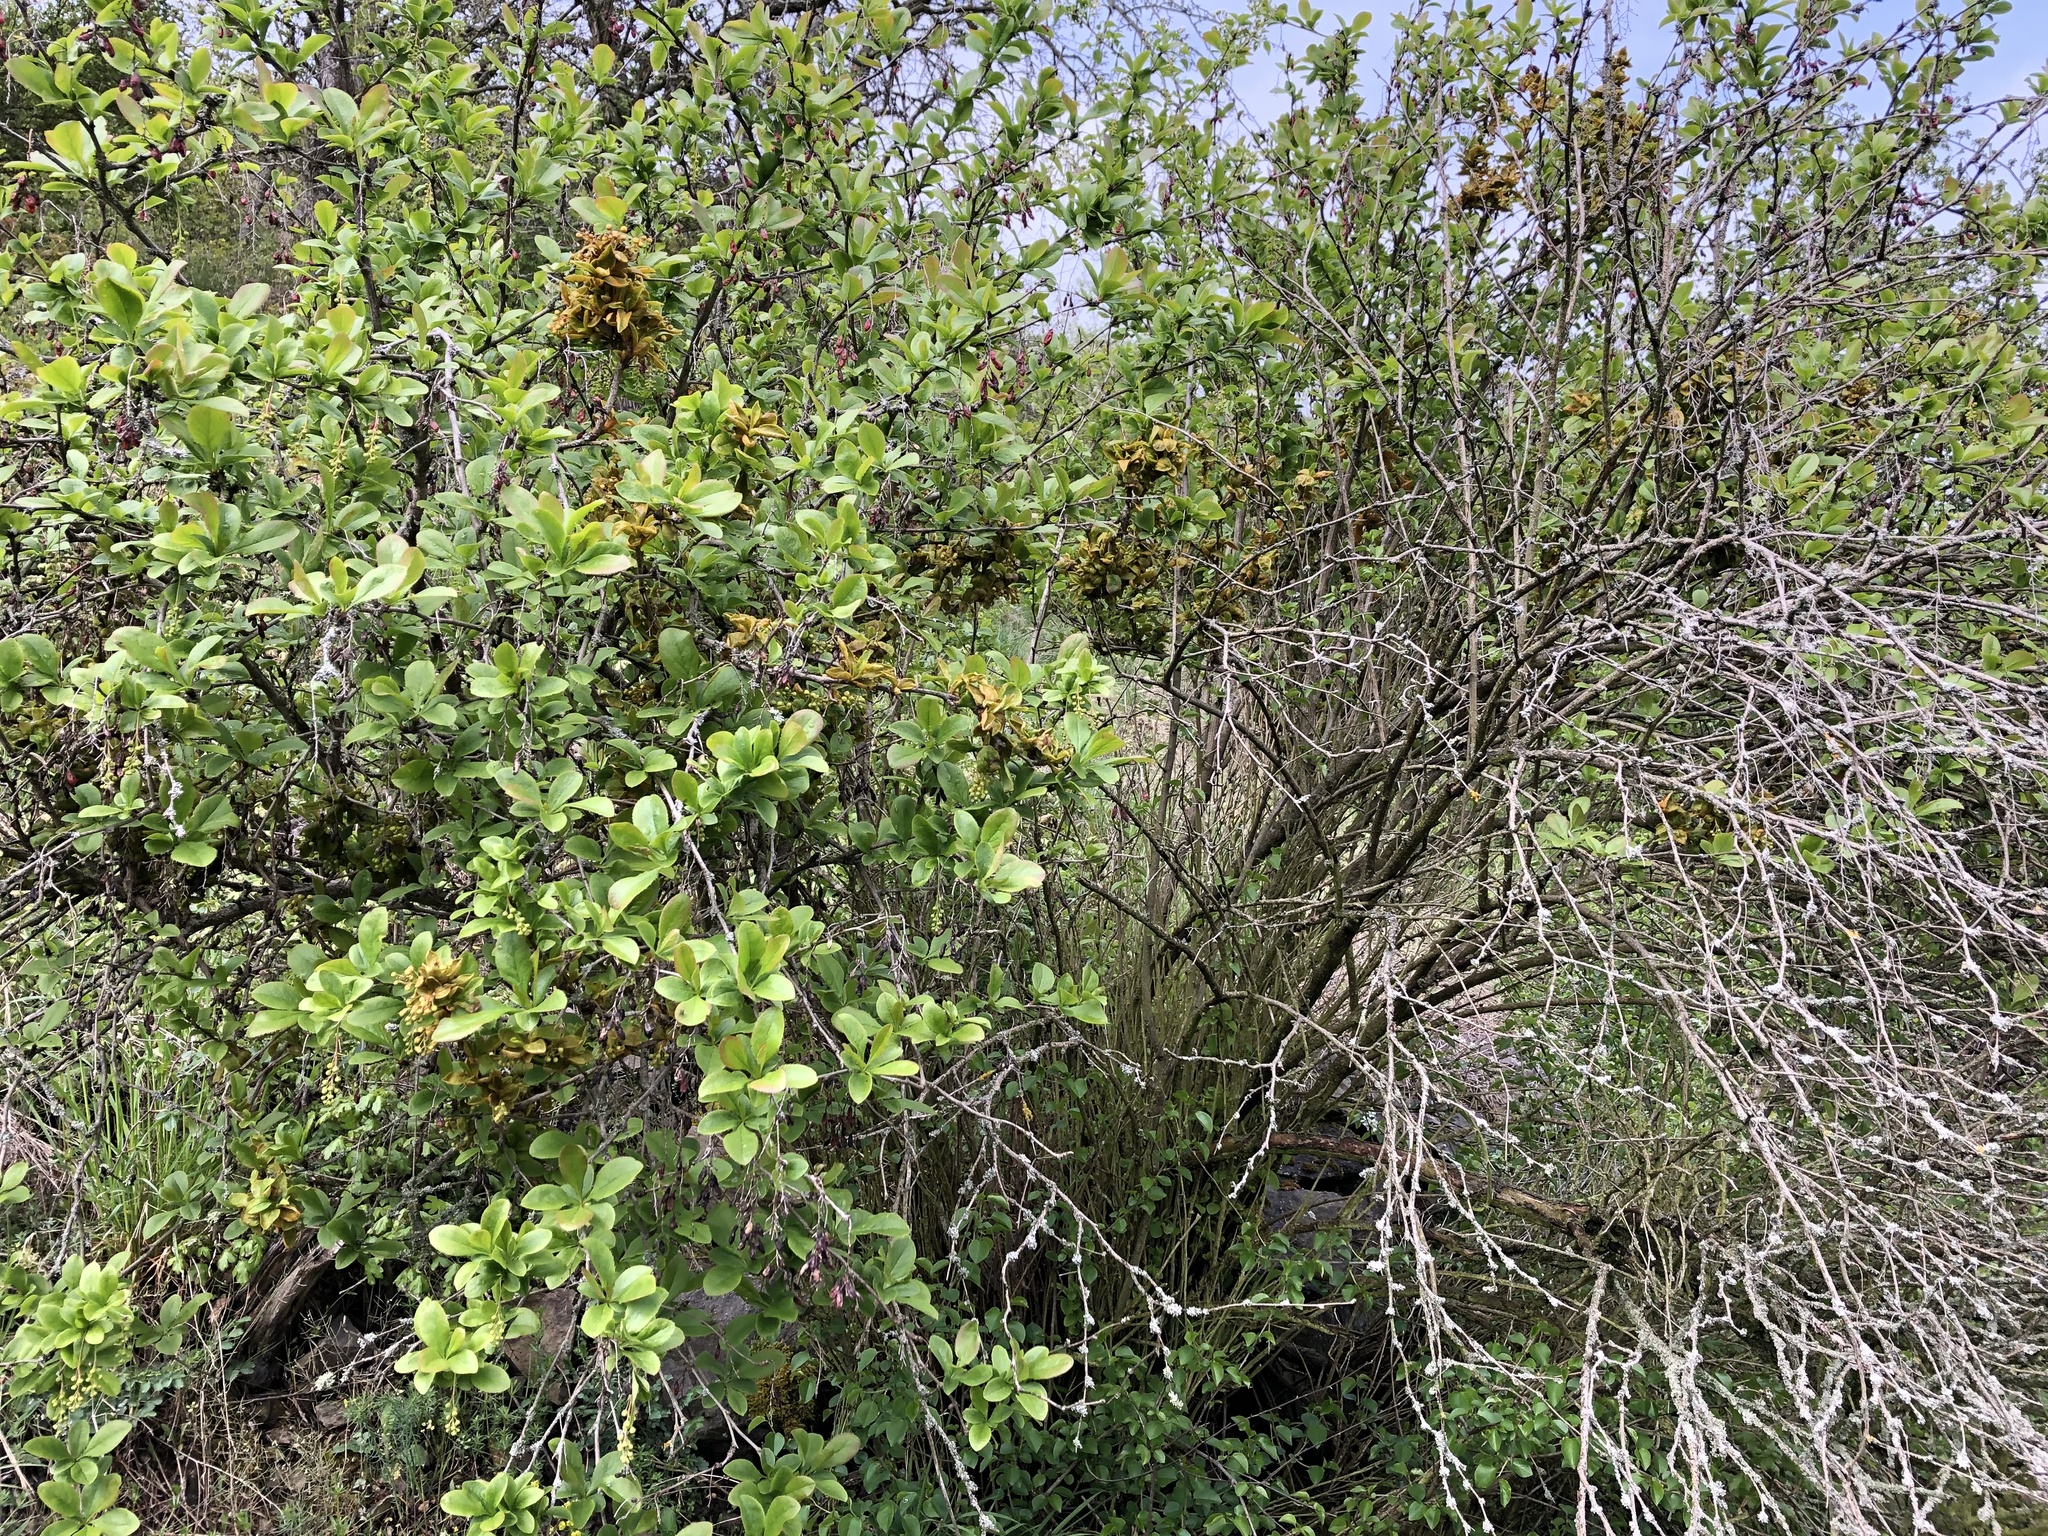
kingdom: Plantae
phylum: Tracheophyta
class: Magnoliopsida
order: Ranunculales
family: Berberidaceae
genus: Berberis
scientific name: Berberis vulgaris
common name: Barberry
